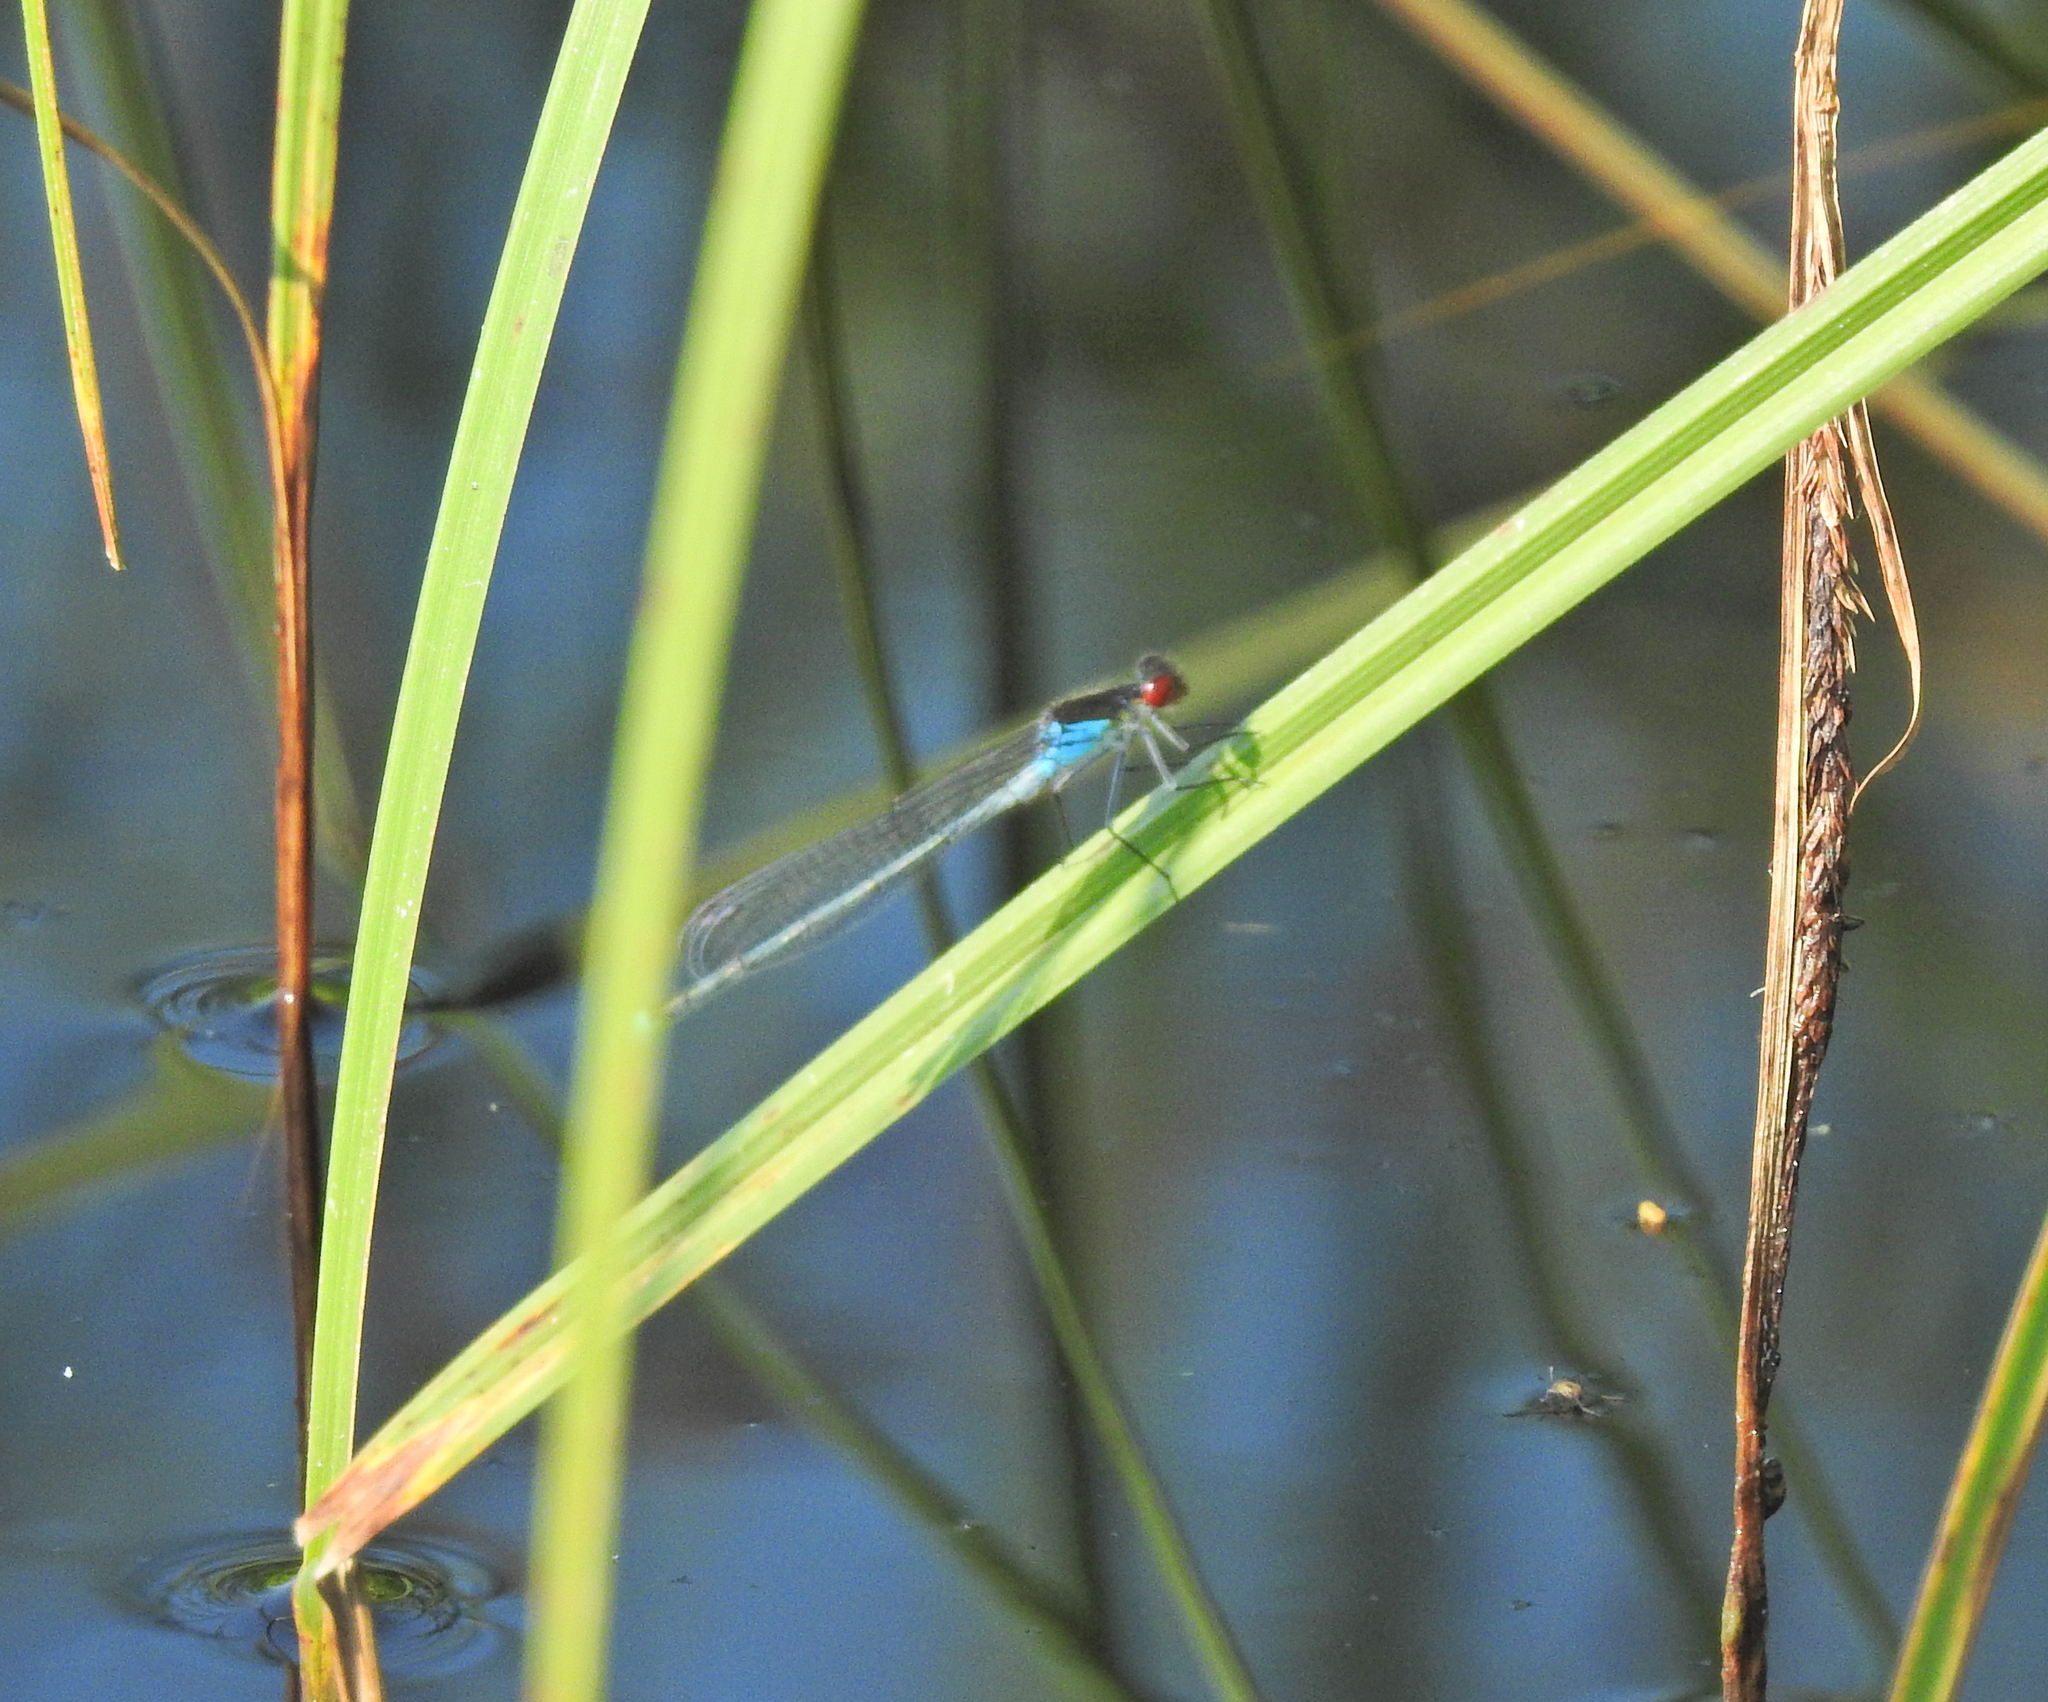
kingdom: Animalia
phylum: Arthropoda
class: Insecta
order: Odonata
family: Coenagrionidae
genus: Erythromma
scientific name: Erythromma najas
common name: Red-eyed damselfly
